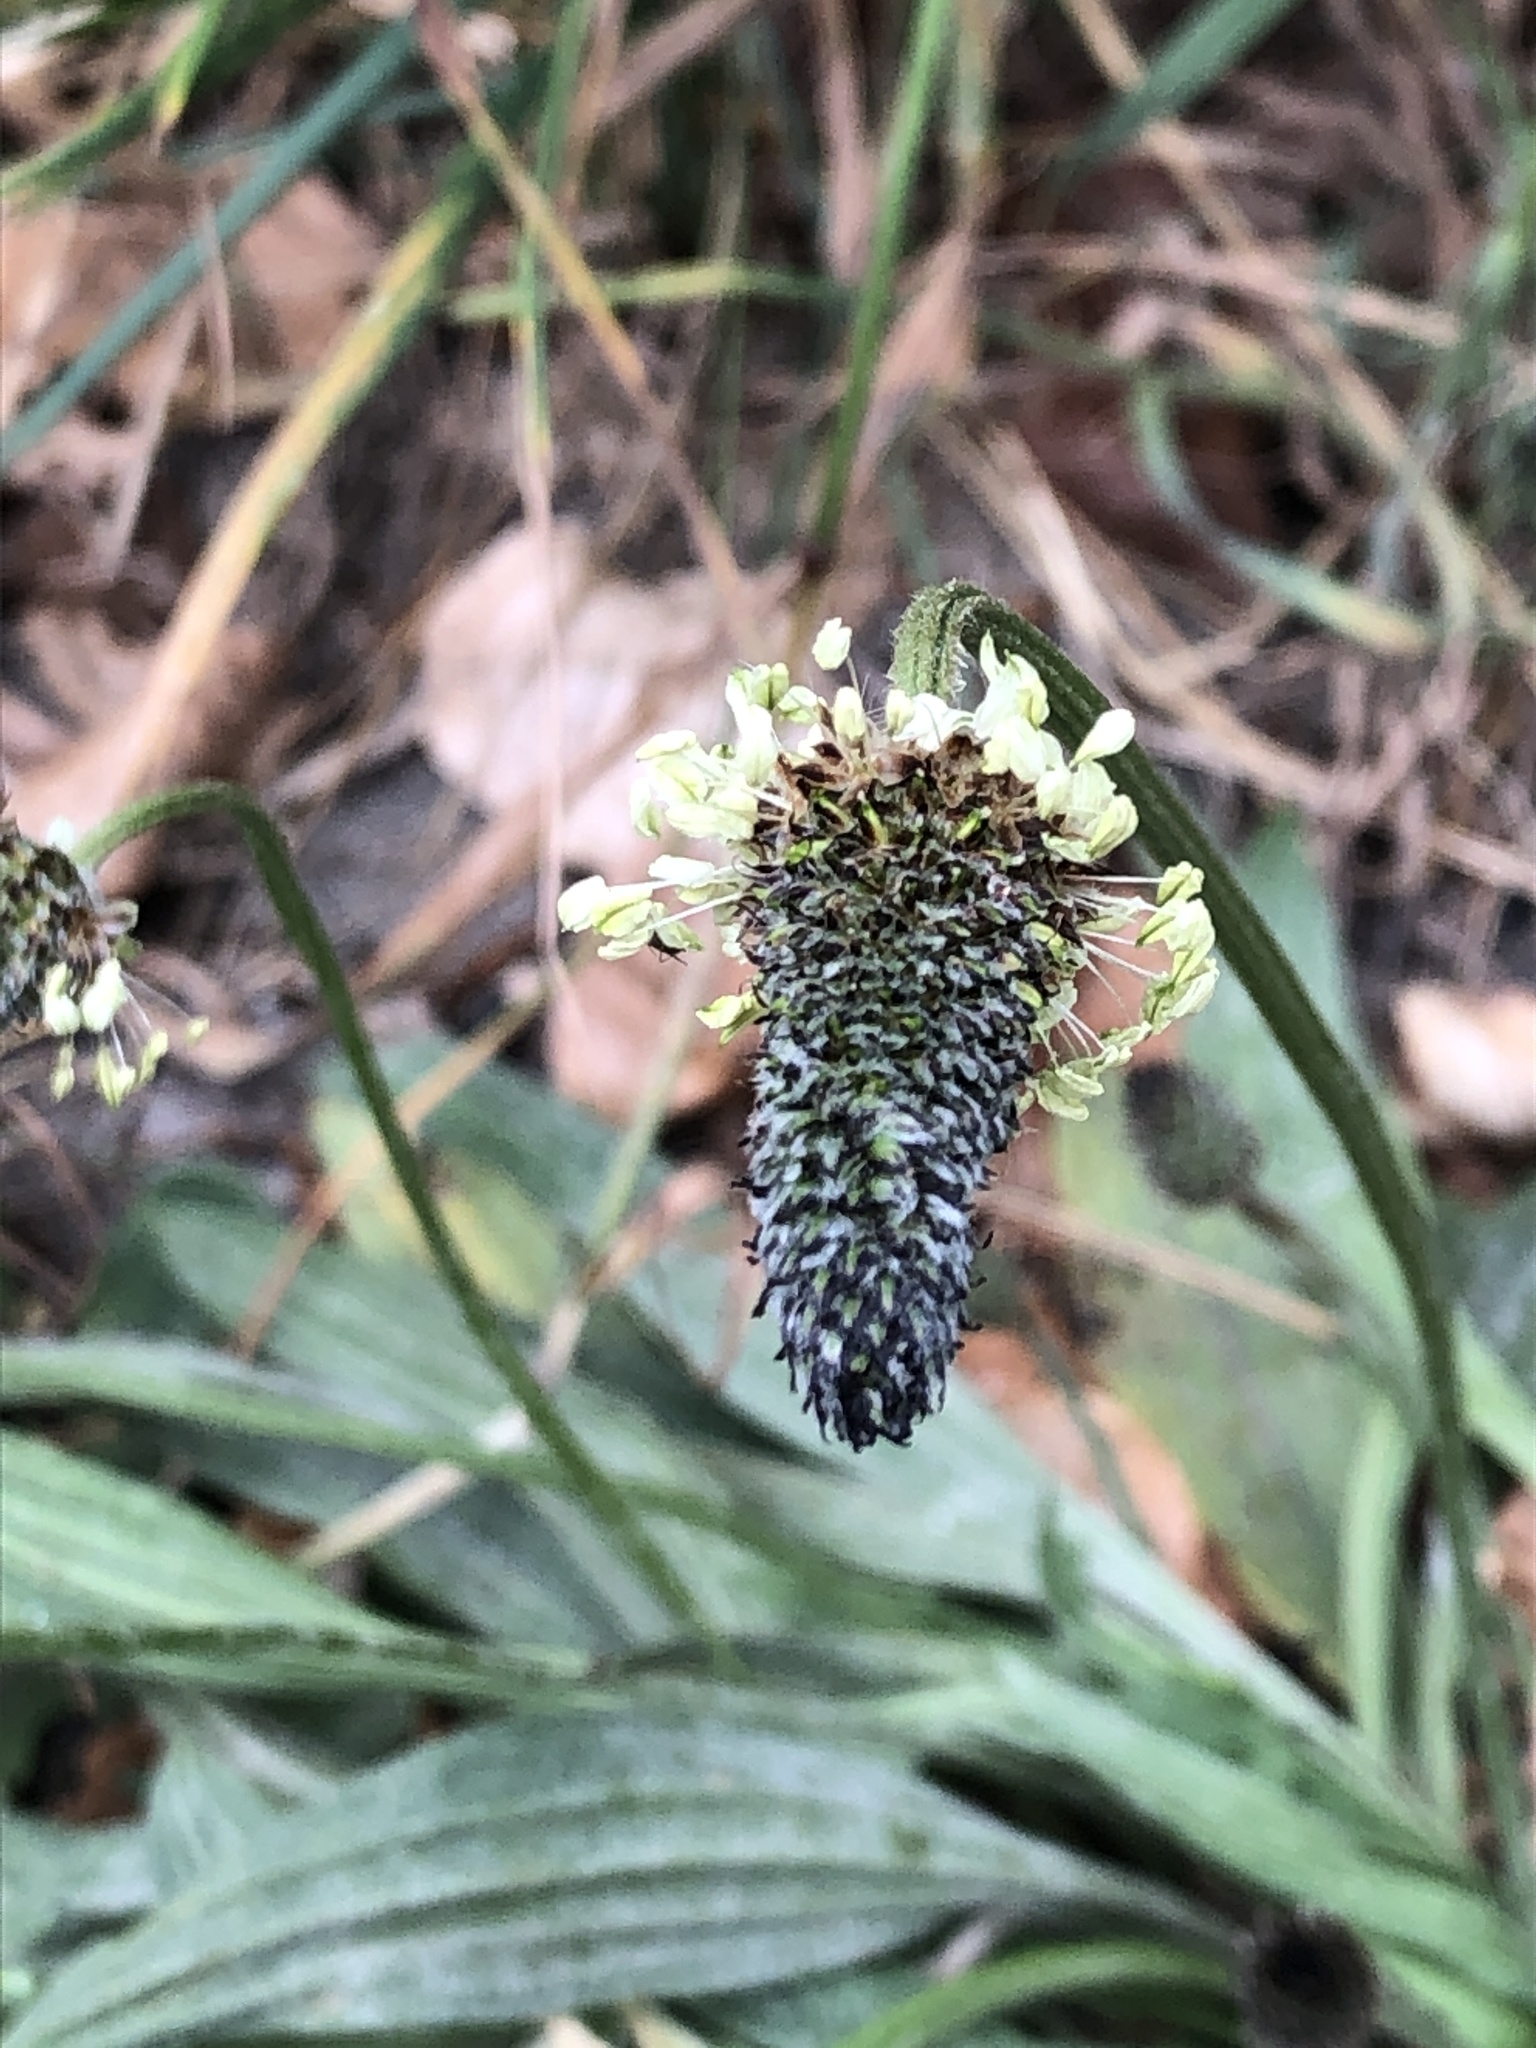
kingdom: Plantae
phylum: Tracheophyta
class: Magnoliopsida
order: Lamiales
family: Plantaginaceae
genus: Plantago
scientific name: Plantago lanceolata
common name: Ribwort plantain
